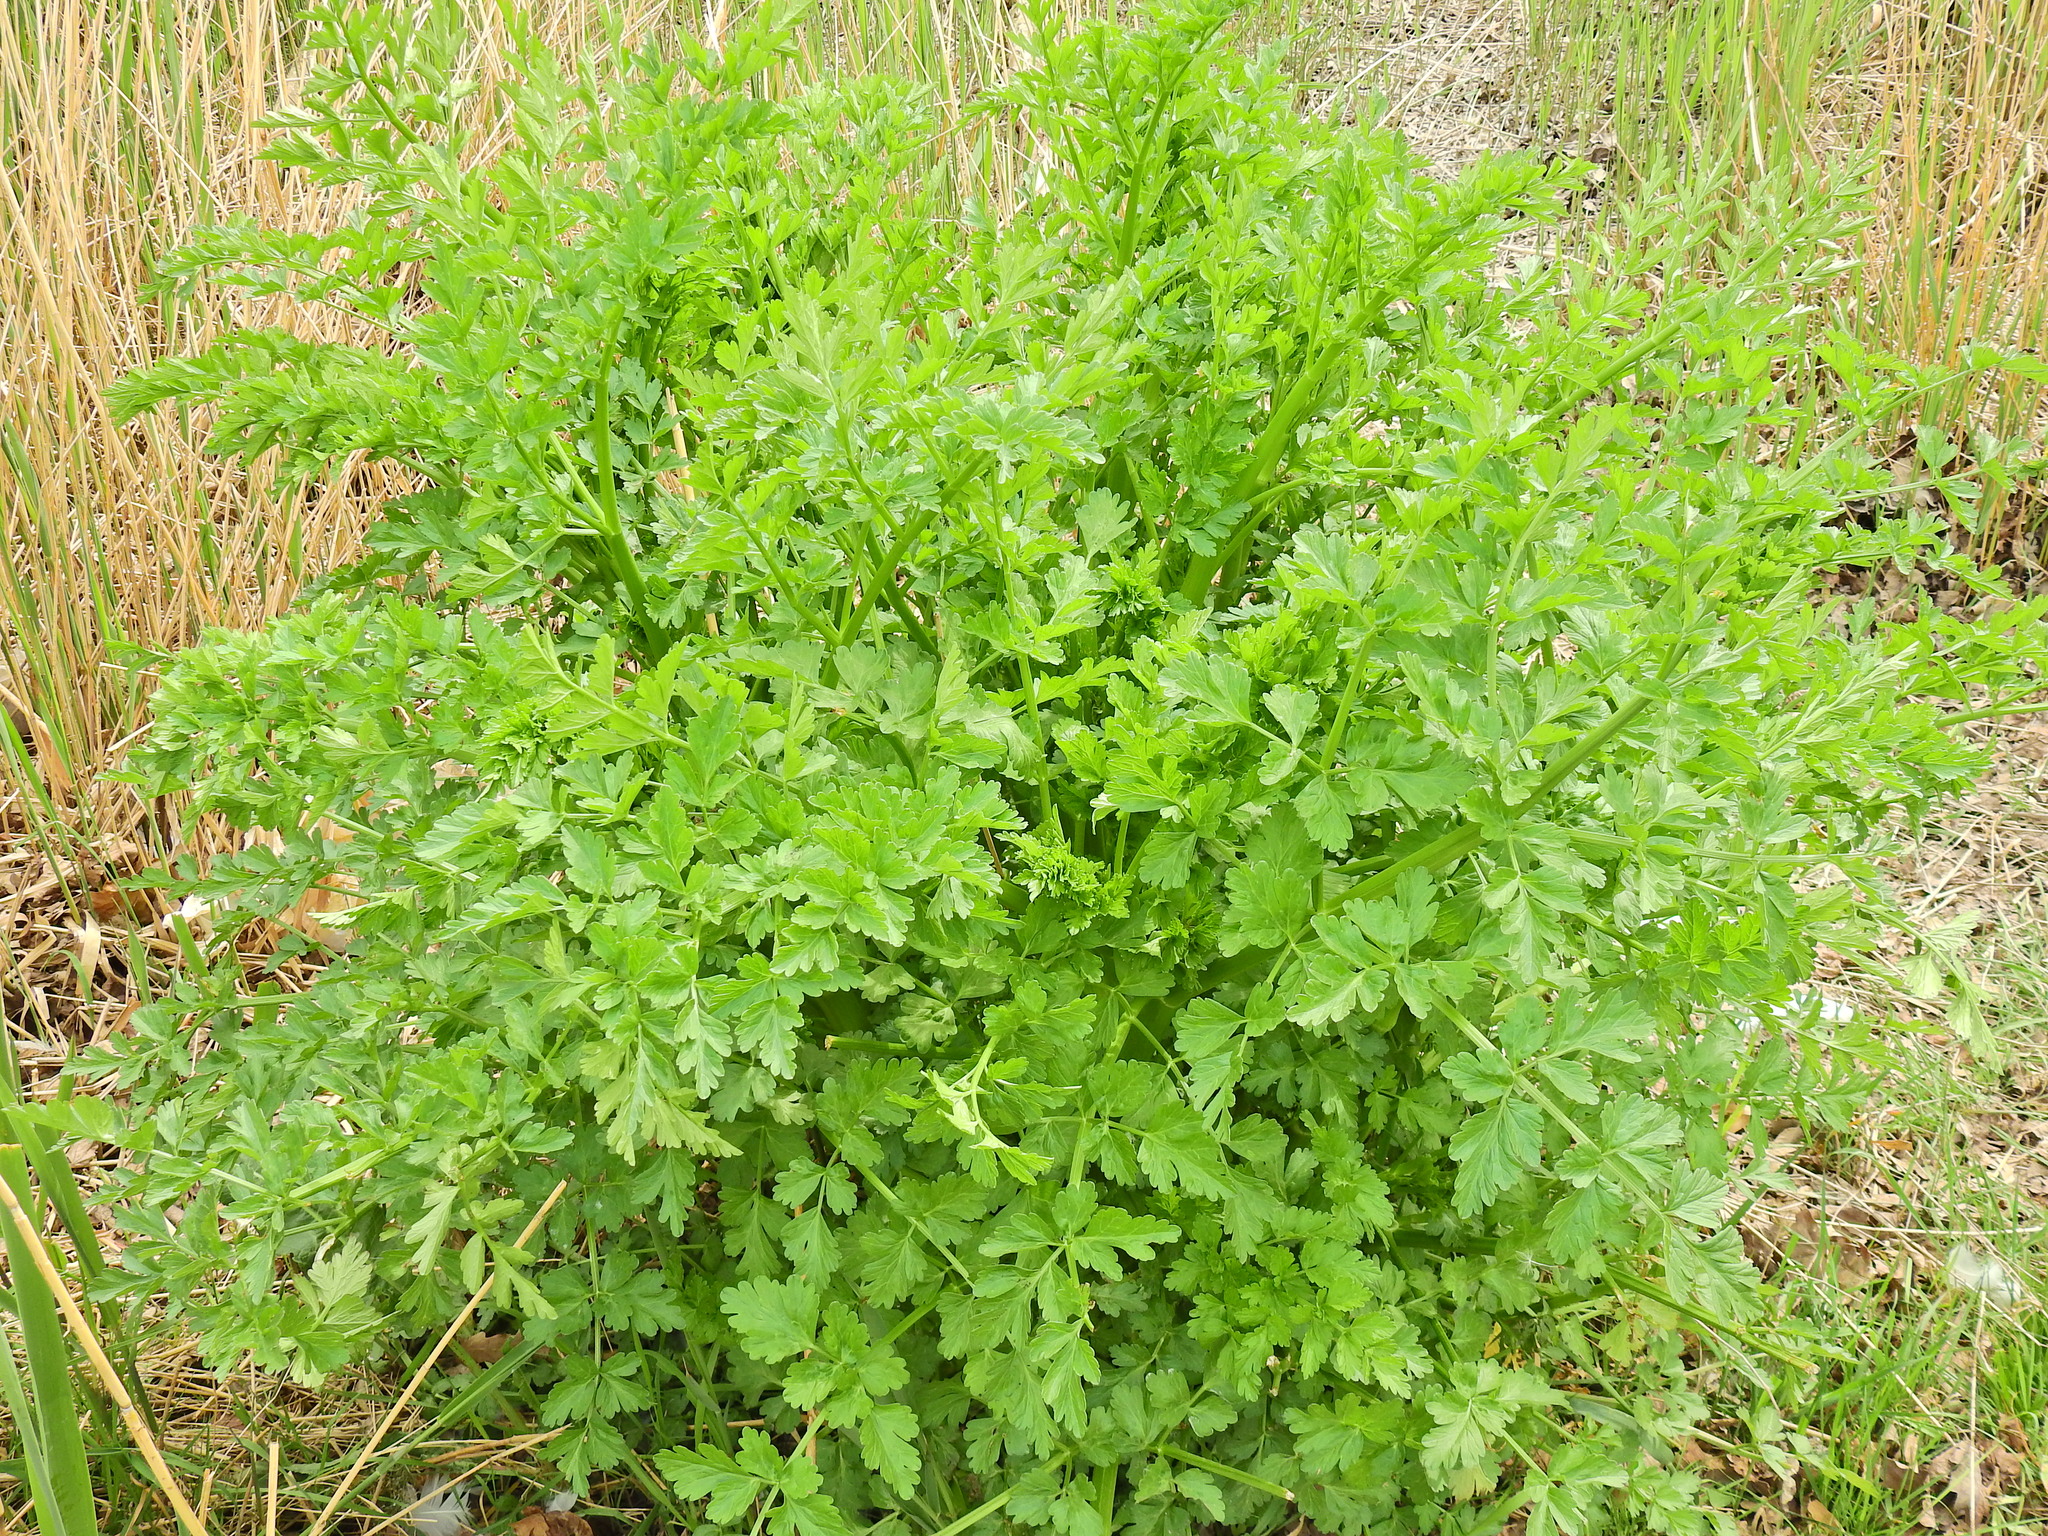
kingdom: Plantae
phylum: Tracheophyta
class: Magnoliopsida
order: Apiales
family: Apiaceae
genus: Oenanthe
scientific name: Oenanthe crocata
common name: Hemlock water-dropwort
